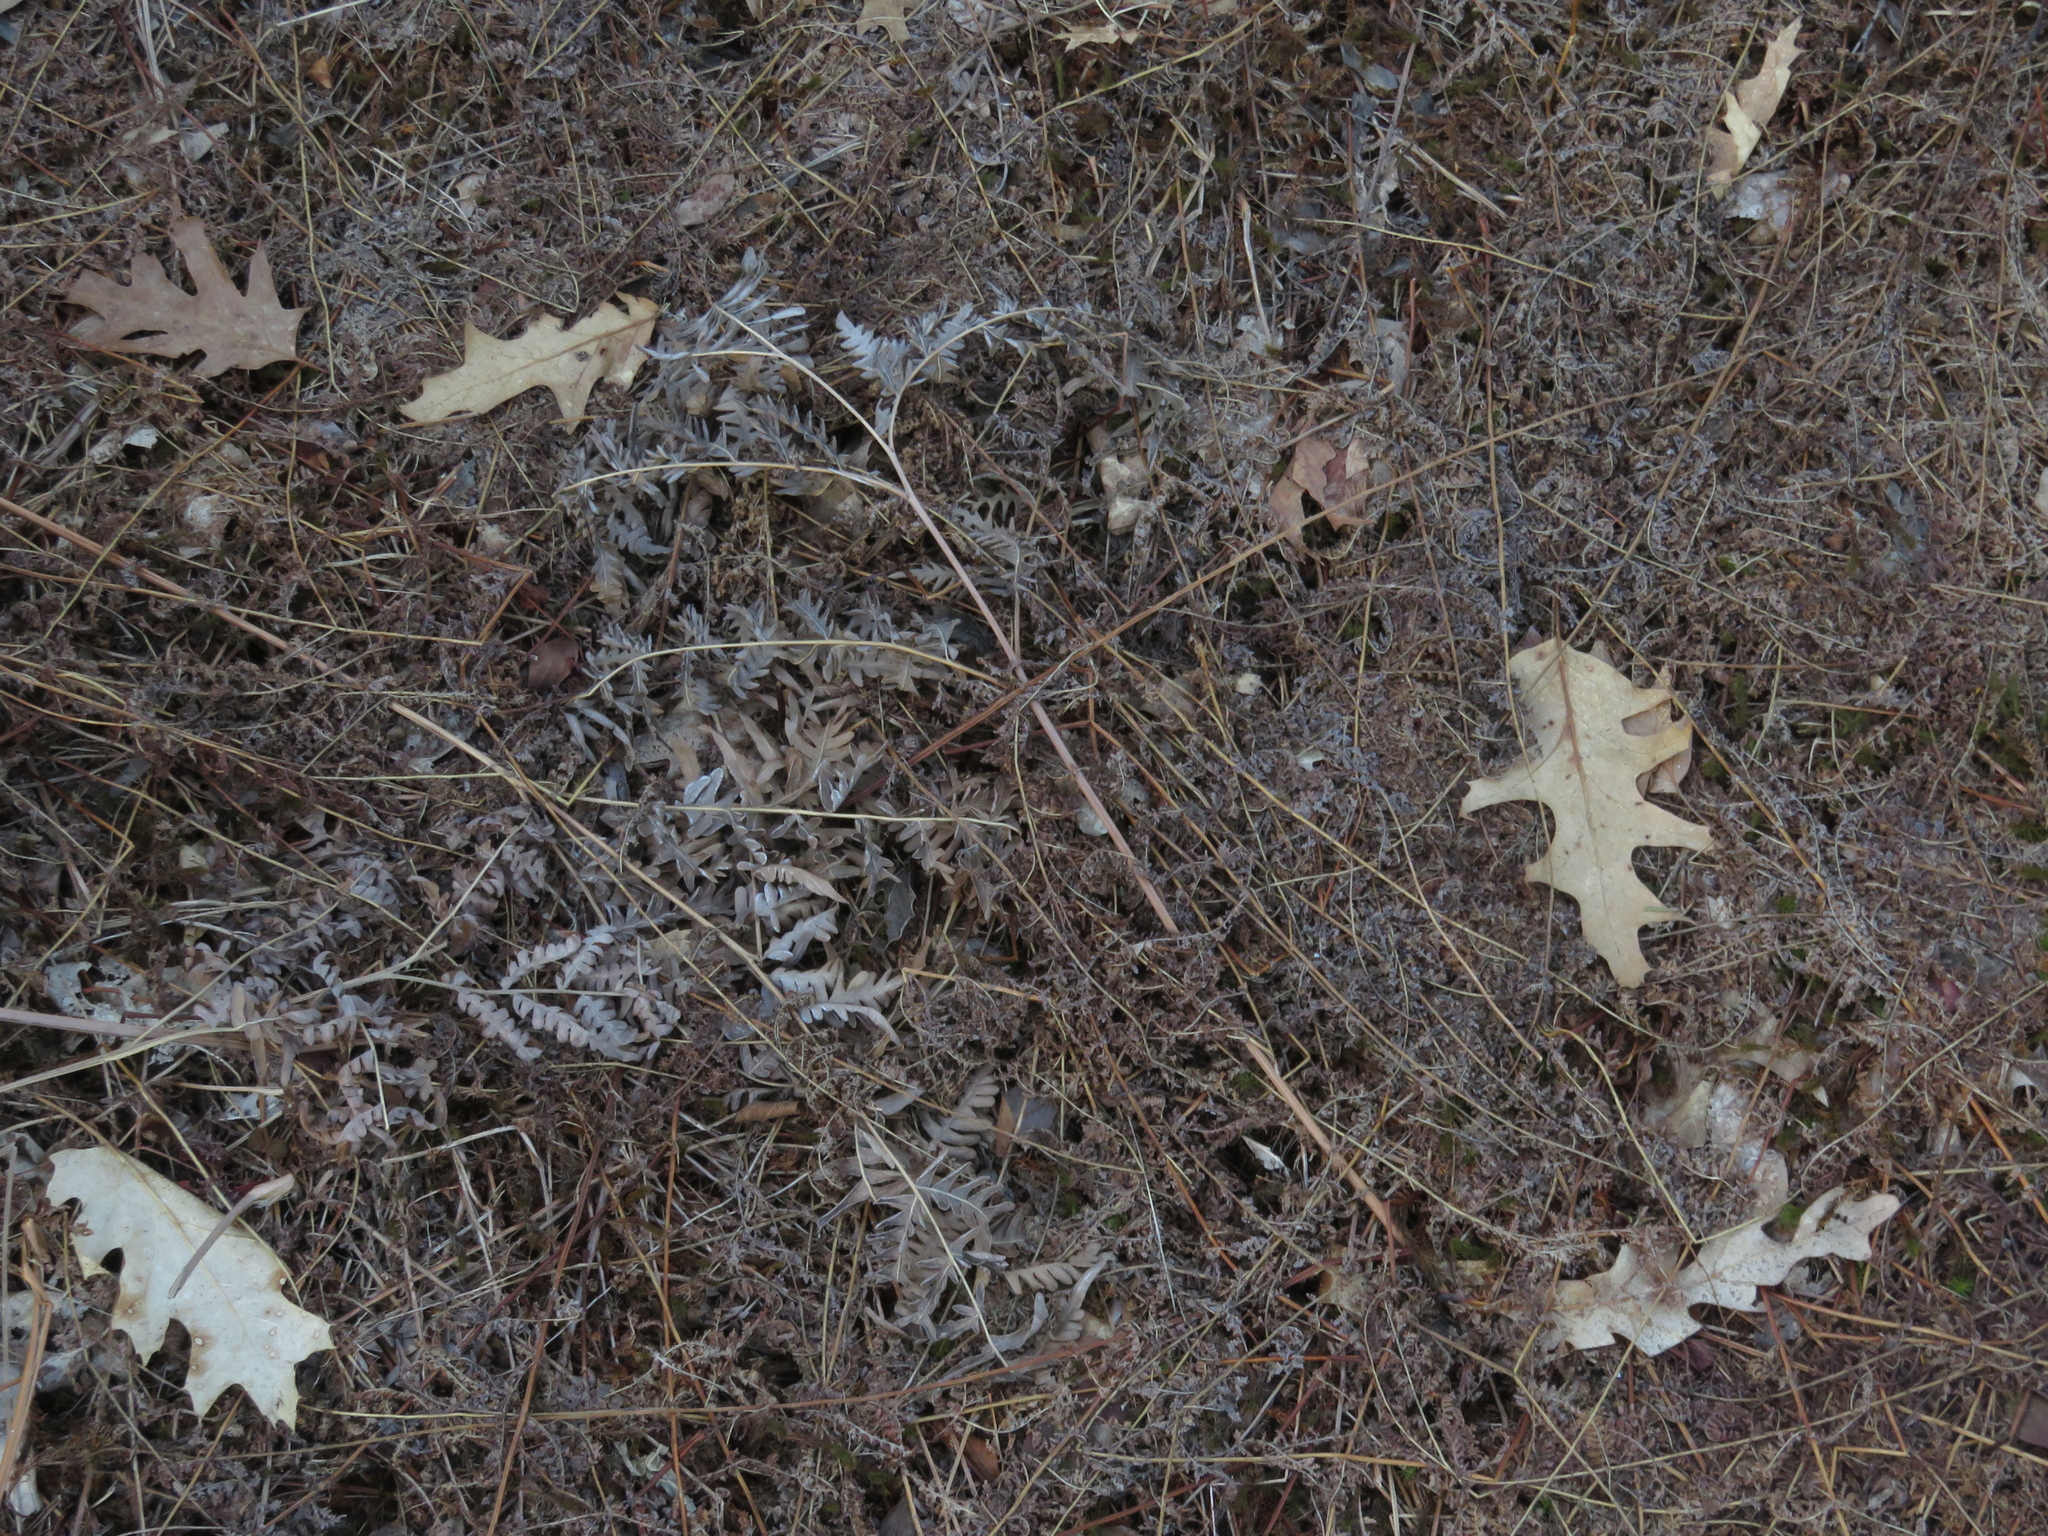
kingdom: Plantae
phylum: Tracheophyta
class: Polypodiopsida
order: Polypodiales
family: Dennstaedtiaceae
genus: Pteridium
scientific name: Pteridium aquilinum
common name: Bracken
